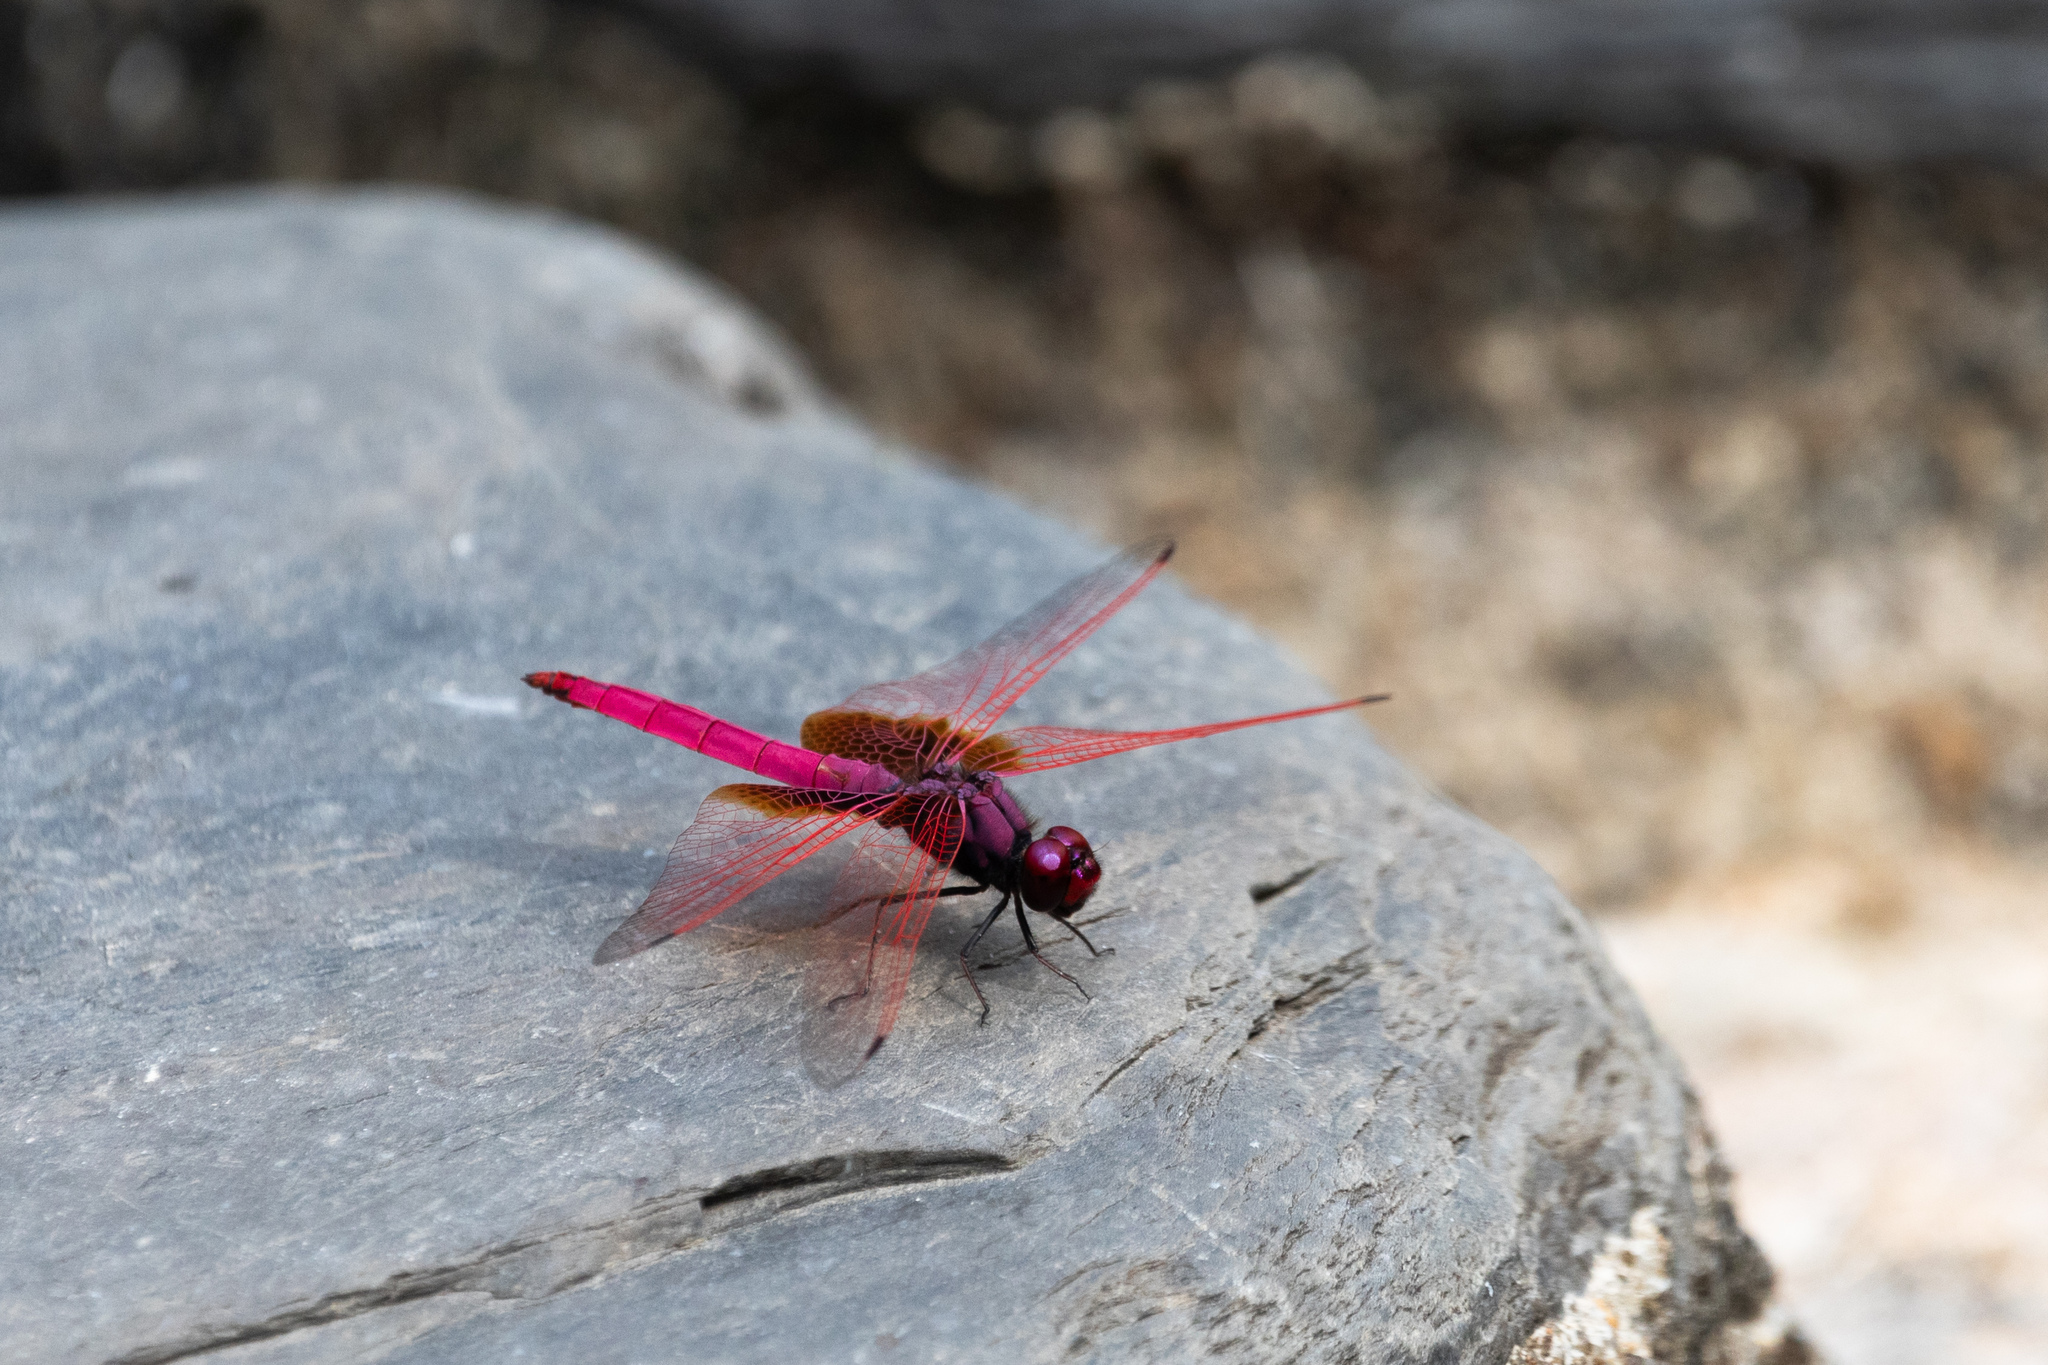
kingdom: Animalia
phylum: Arthropoda
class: Insecta
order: Odonata
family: Libellulidae
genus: Trithemis
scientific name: Trithemis aurora
